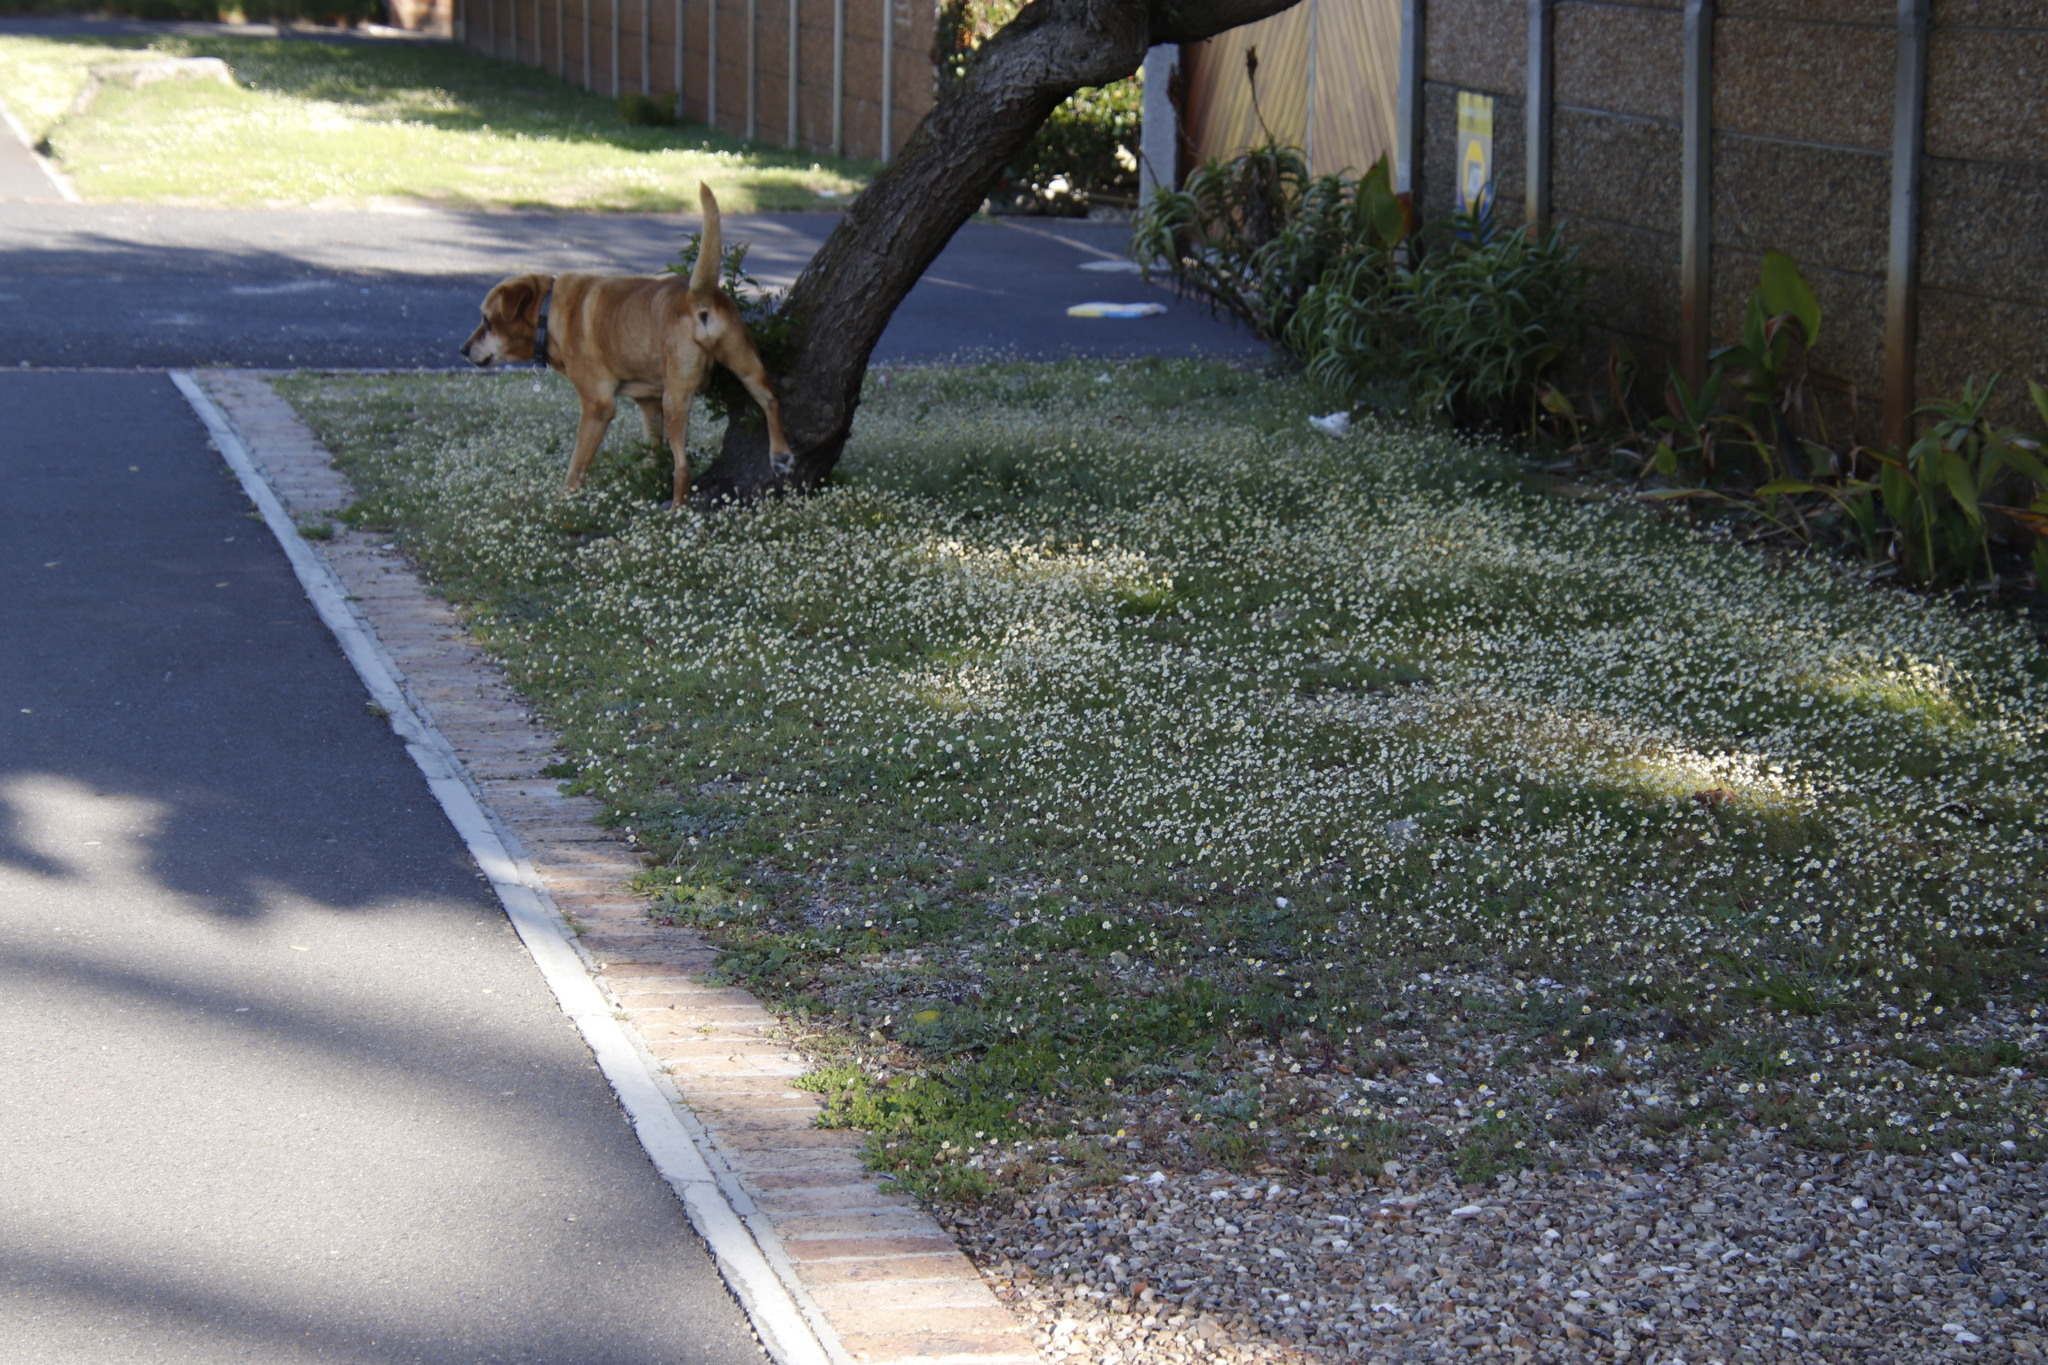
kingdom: Plantae
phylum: Tracheophyta
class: Magnoliopsida
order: Asterales
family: Asteraceae
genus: Cotula
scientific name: Cotula turbinata
